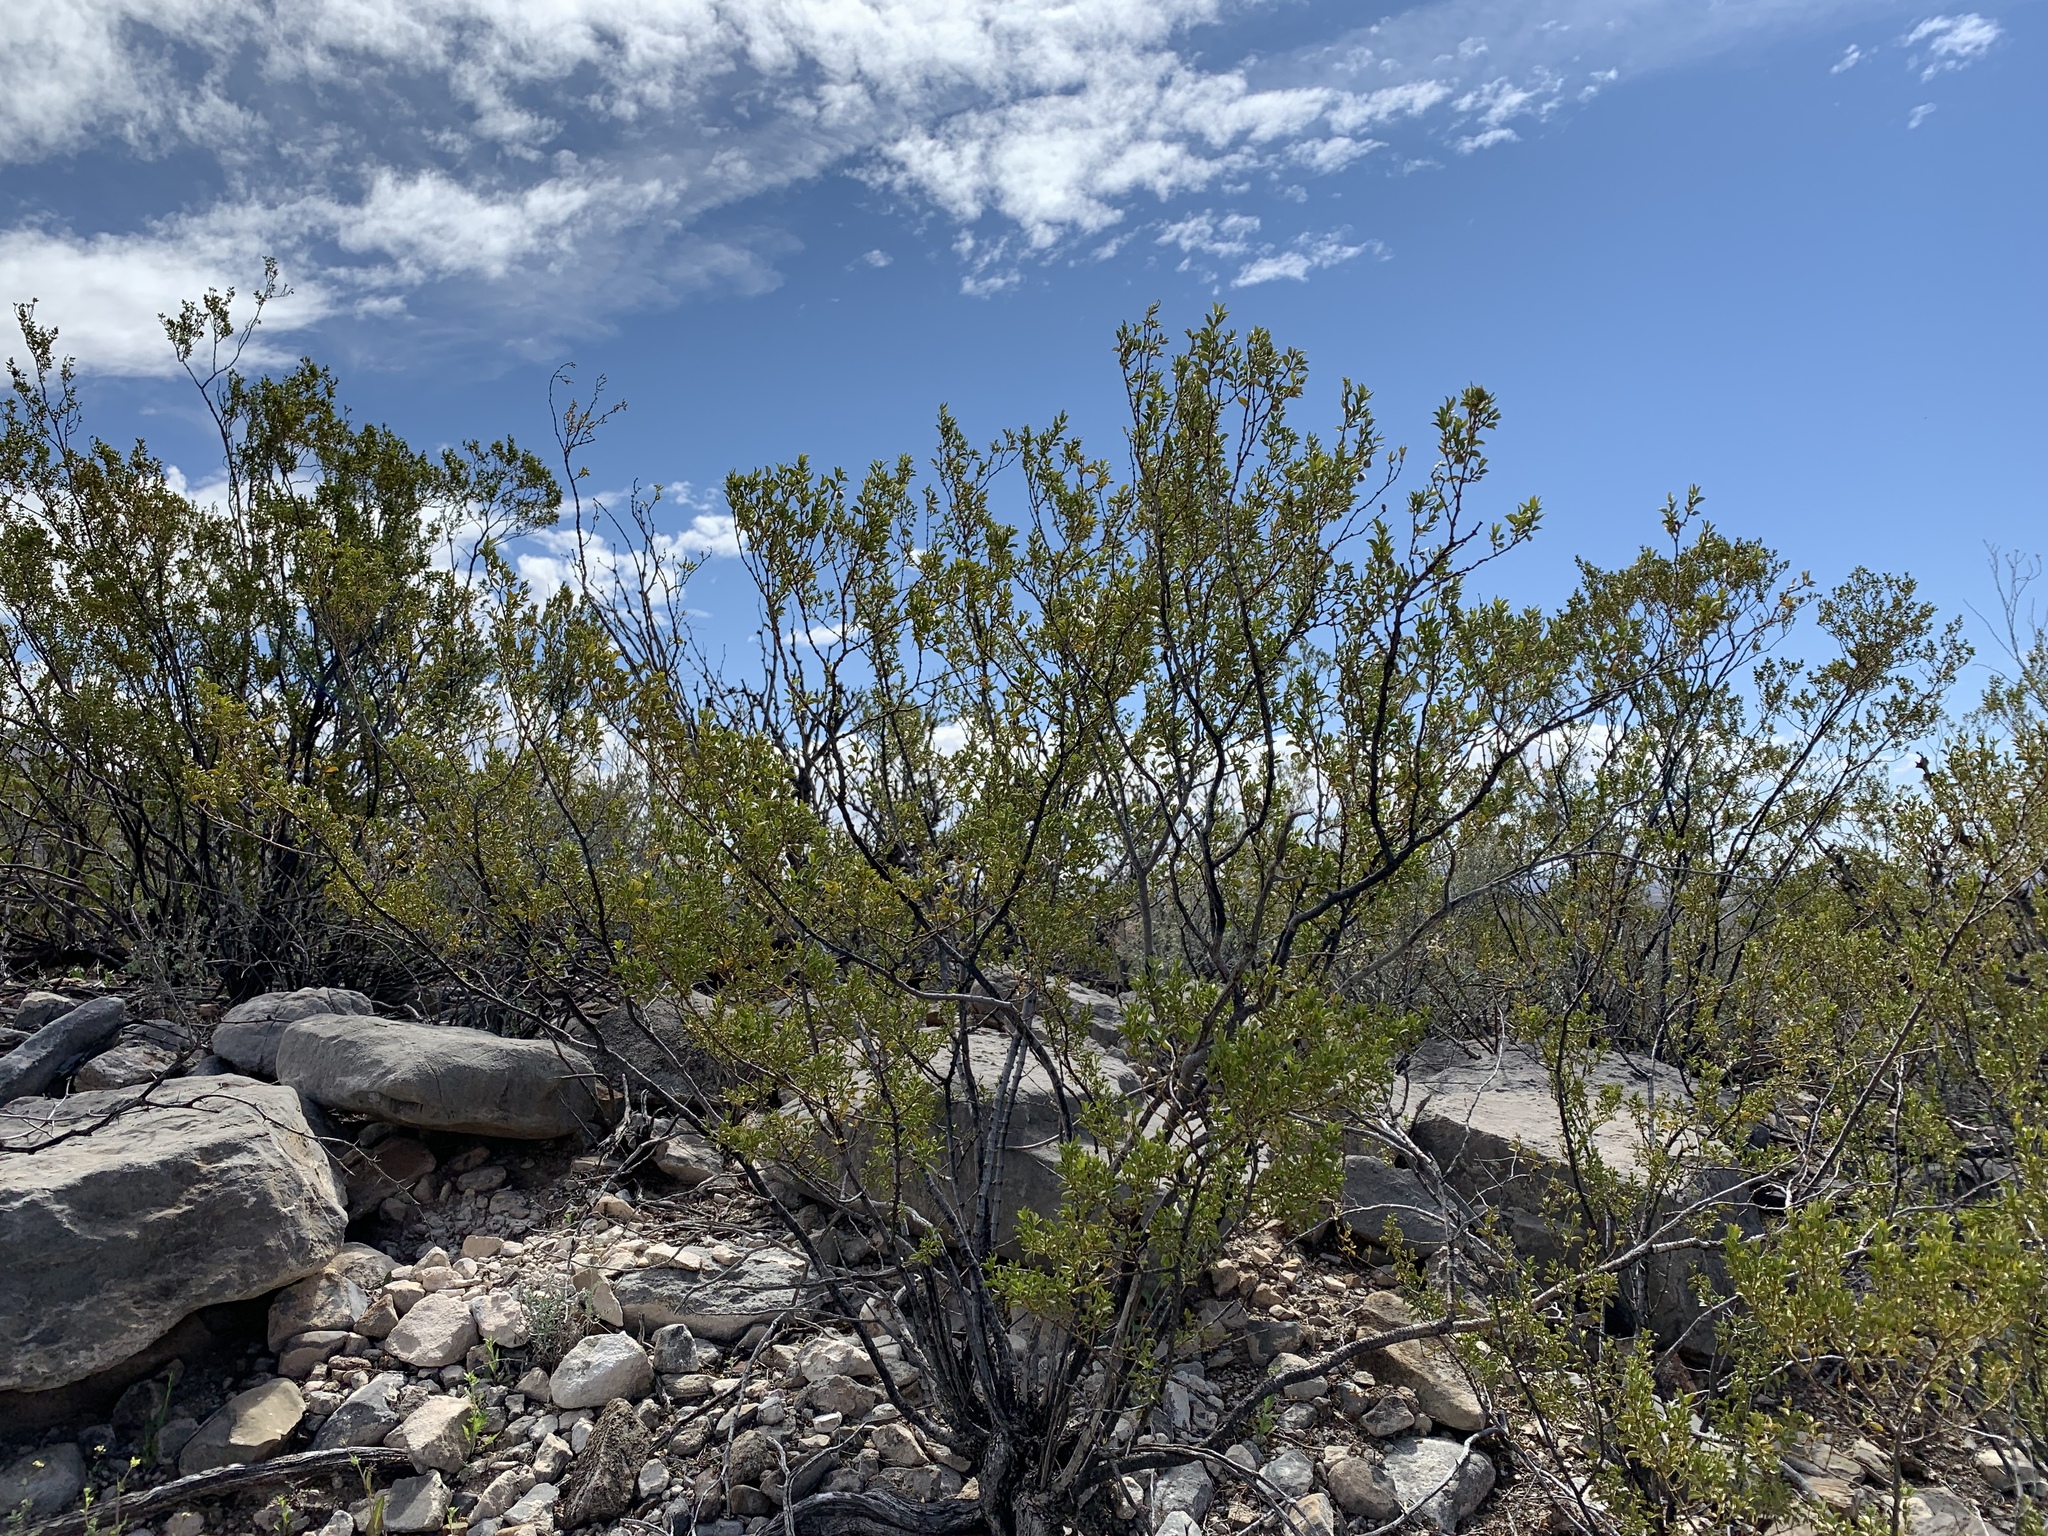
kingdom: Plantae
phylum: Tracheophyta
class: Magnoliopsida
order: Zygophyllales
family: Zygophyllaceae
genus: Larrea
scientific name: Larrea tridentata
